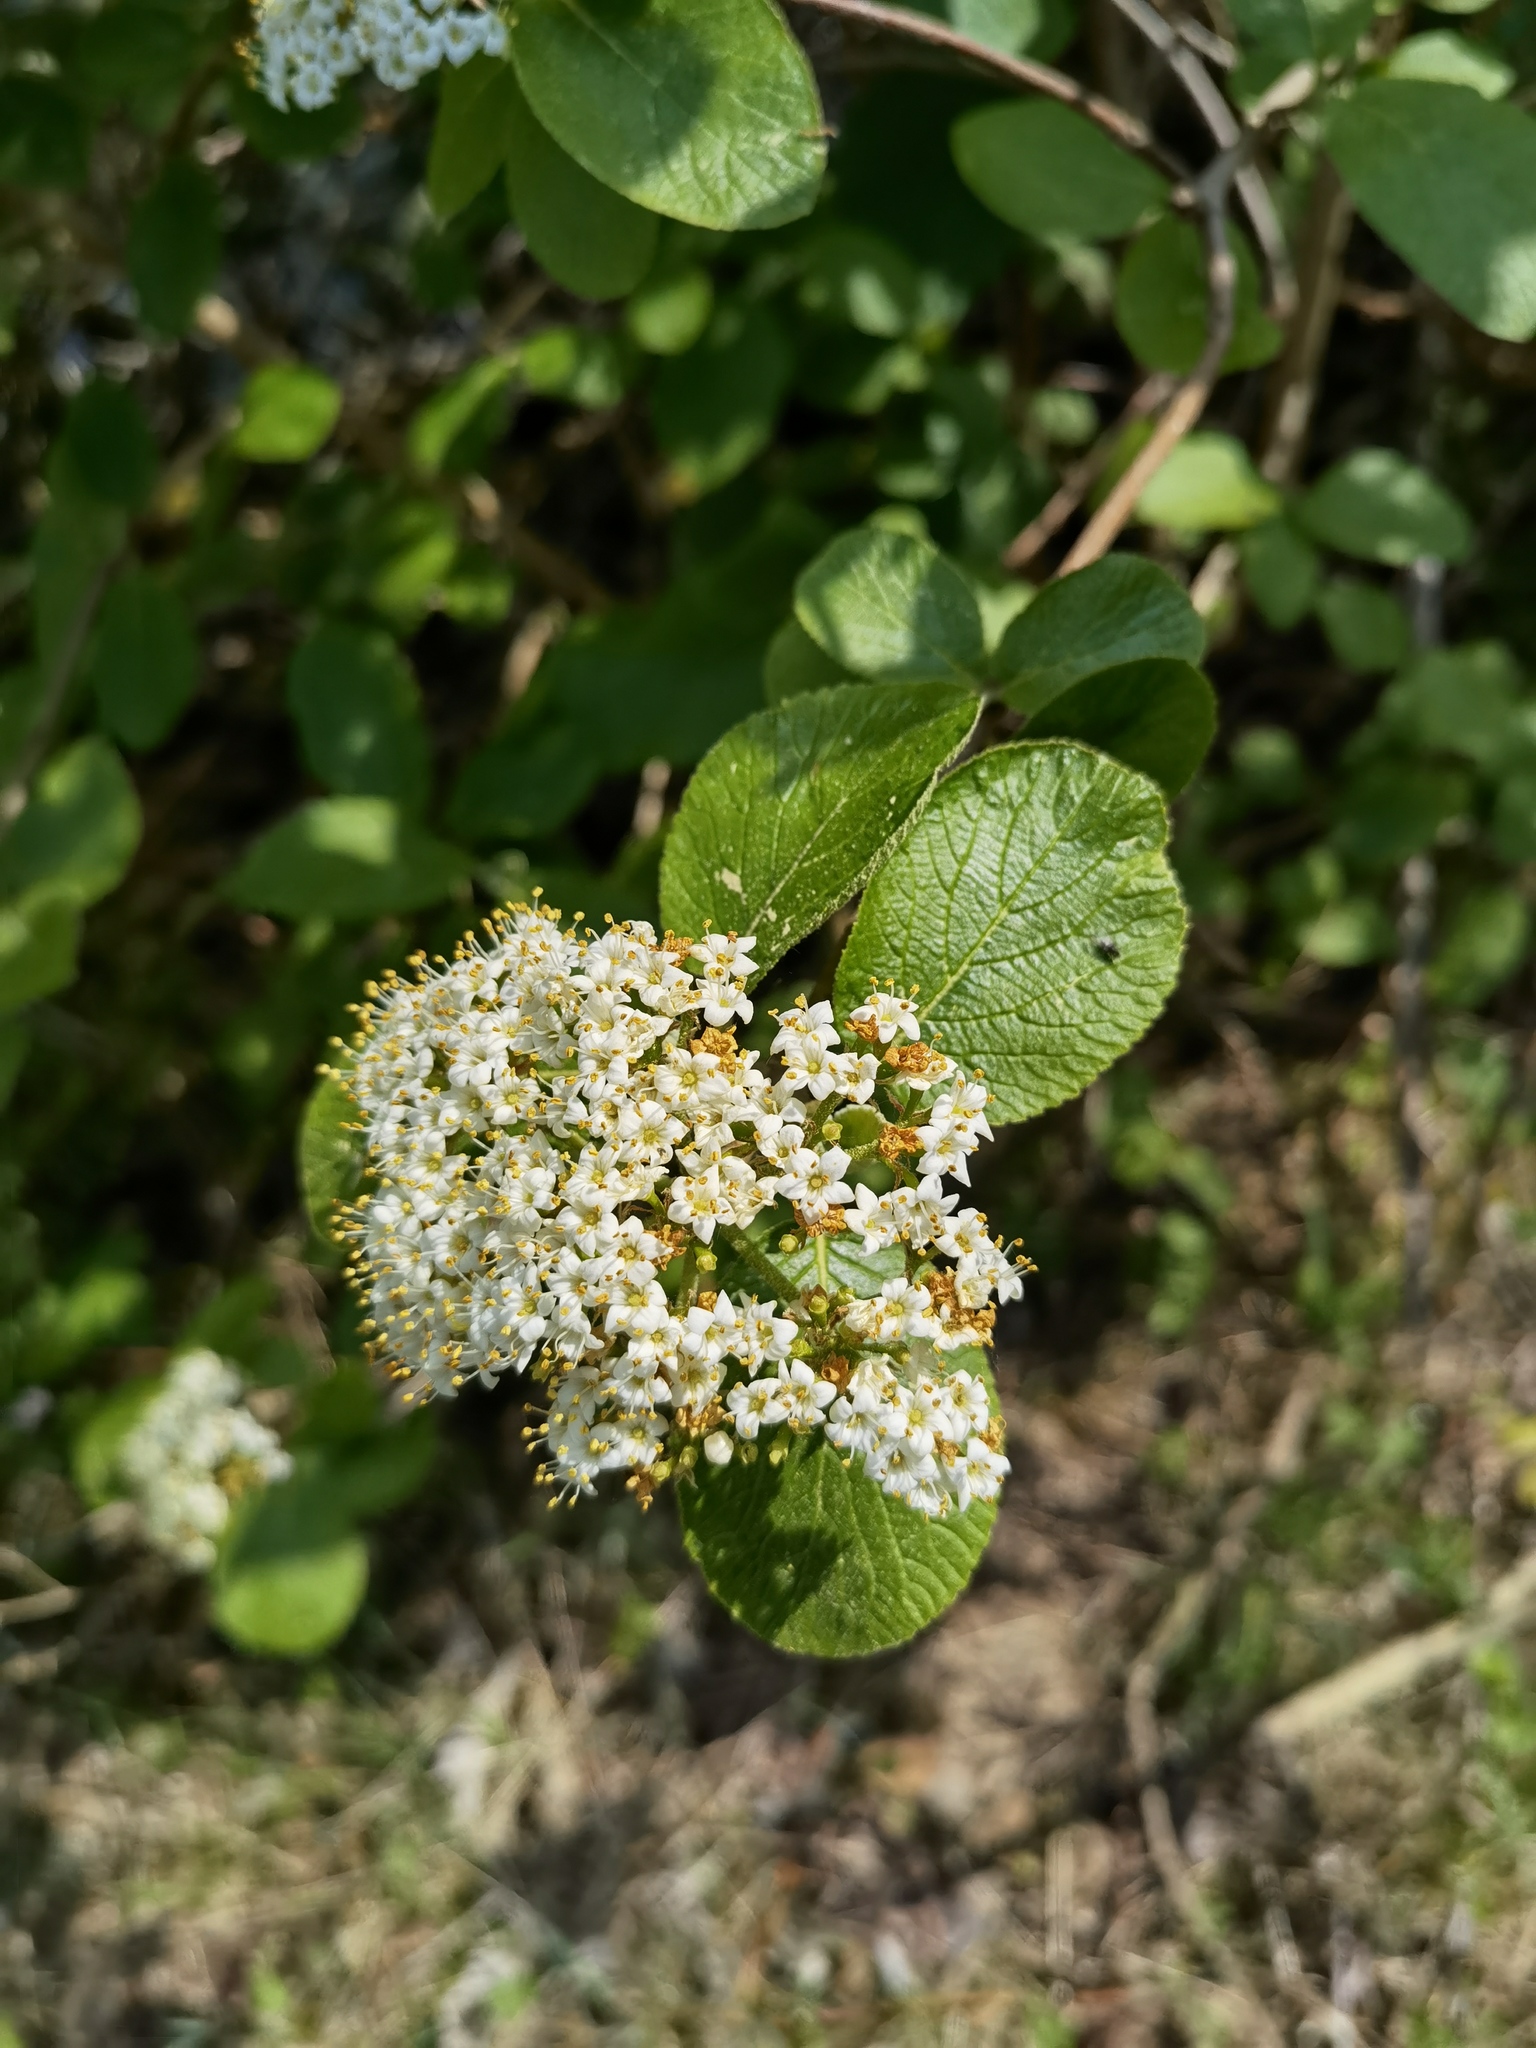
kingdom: Plantae
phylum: Tracheophyta
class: Magnoliopsida
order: Dipsacales
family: Viburnaceae
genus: Viburnum
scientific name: Viburnum lantana
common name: Wayfaring tree
